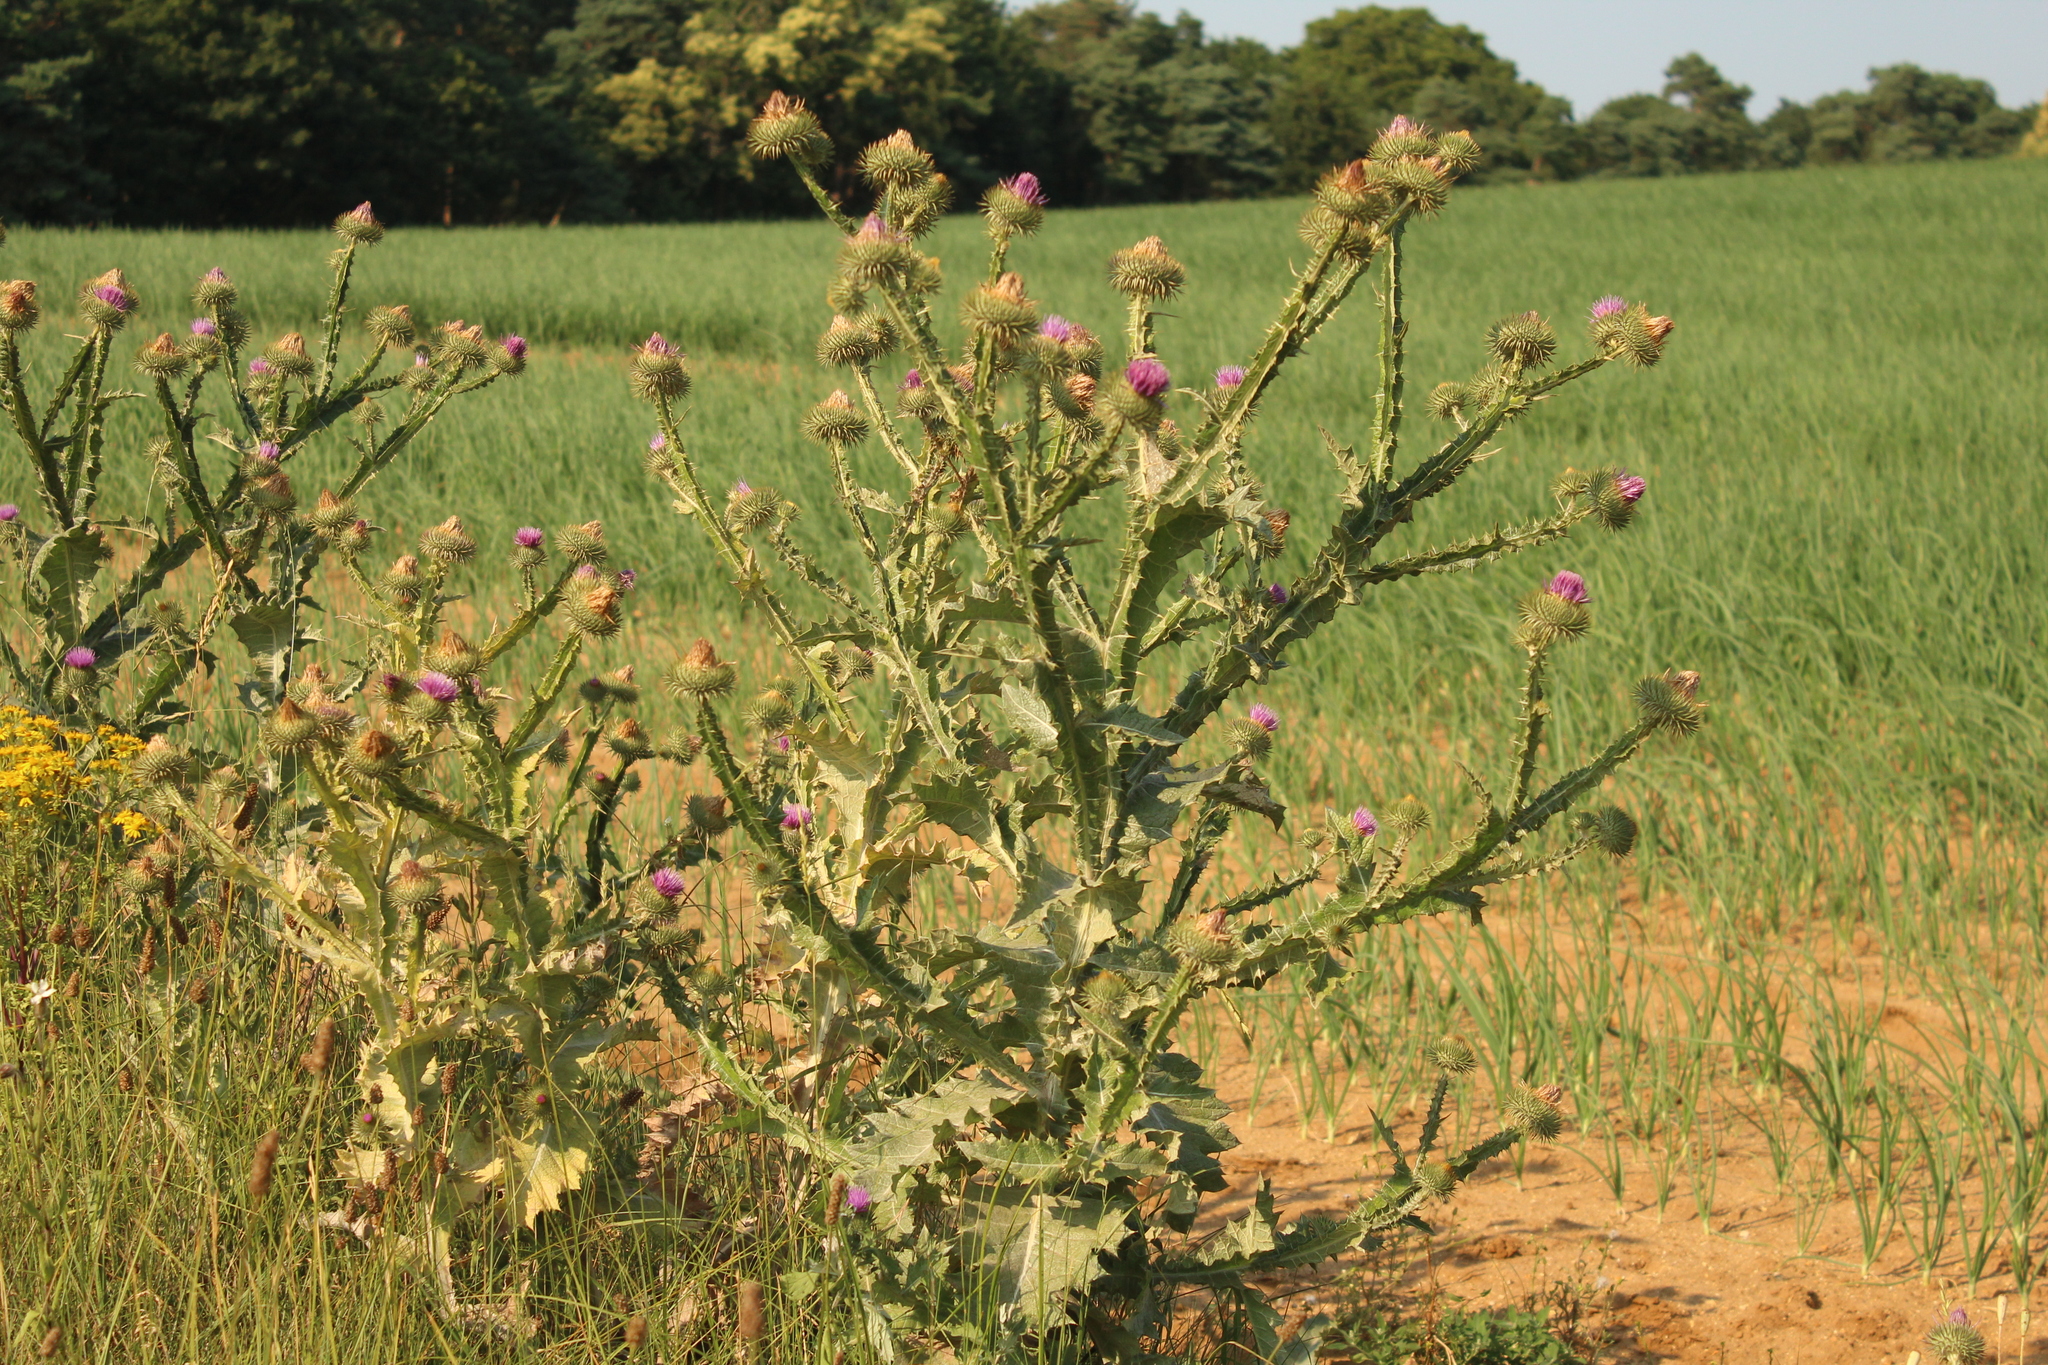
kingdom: Plantae
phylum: Tracheophyta
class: Magnoliopsida
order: Asterales
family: Asteraceae
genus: Onopordum
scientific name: Onopordum acanthium
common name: Scotch thistle
